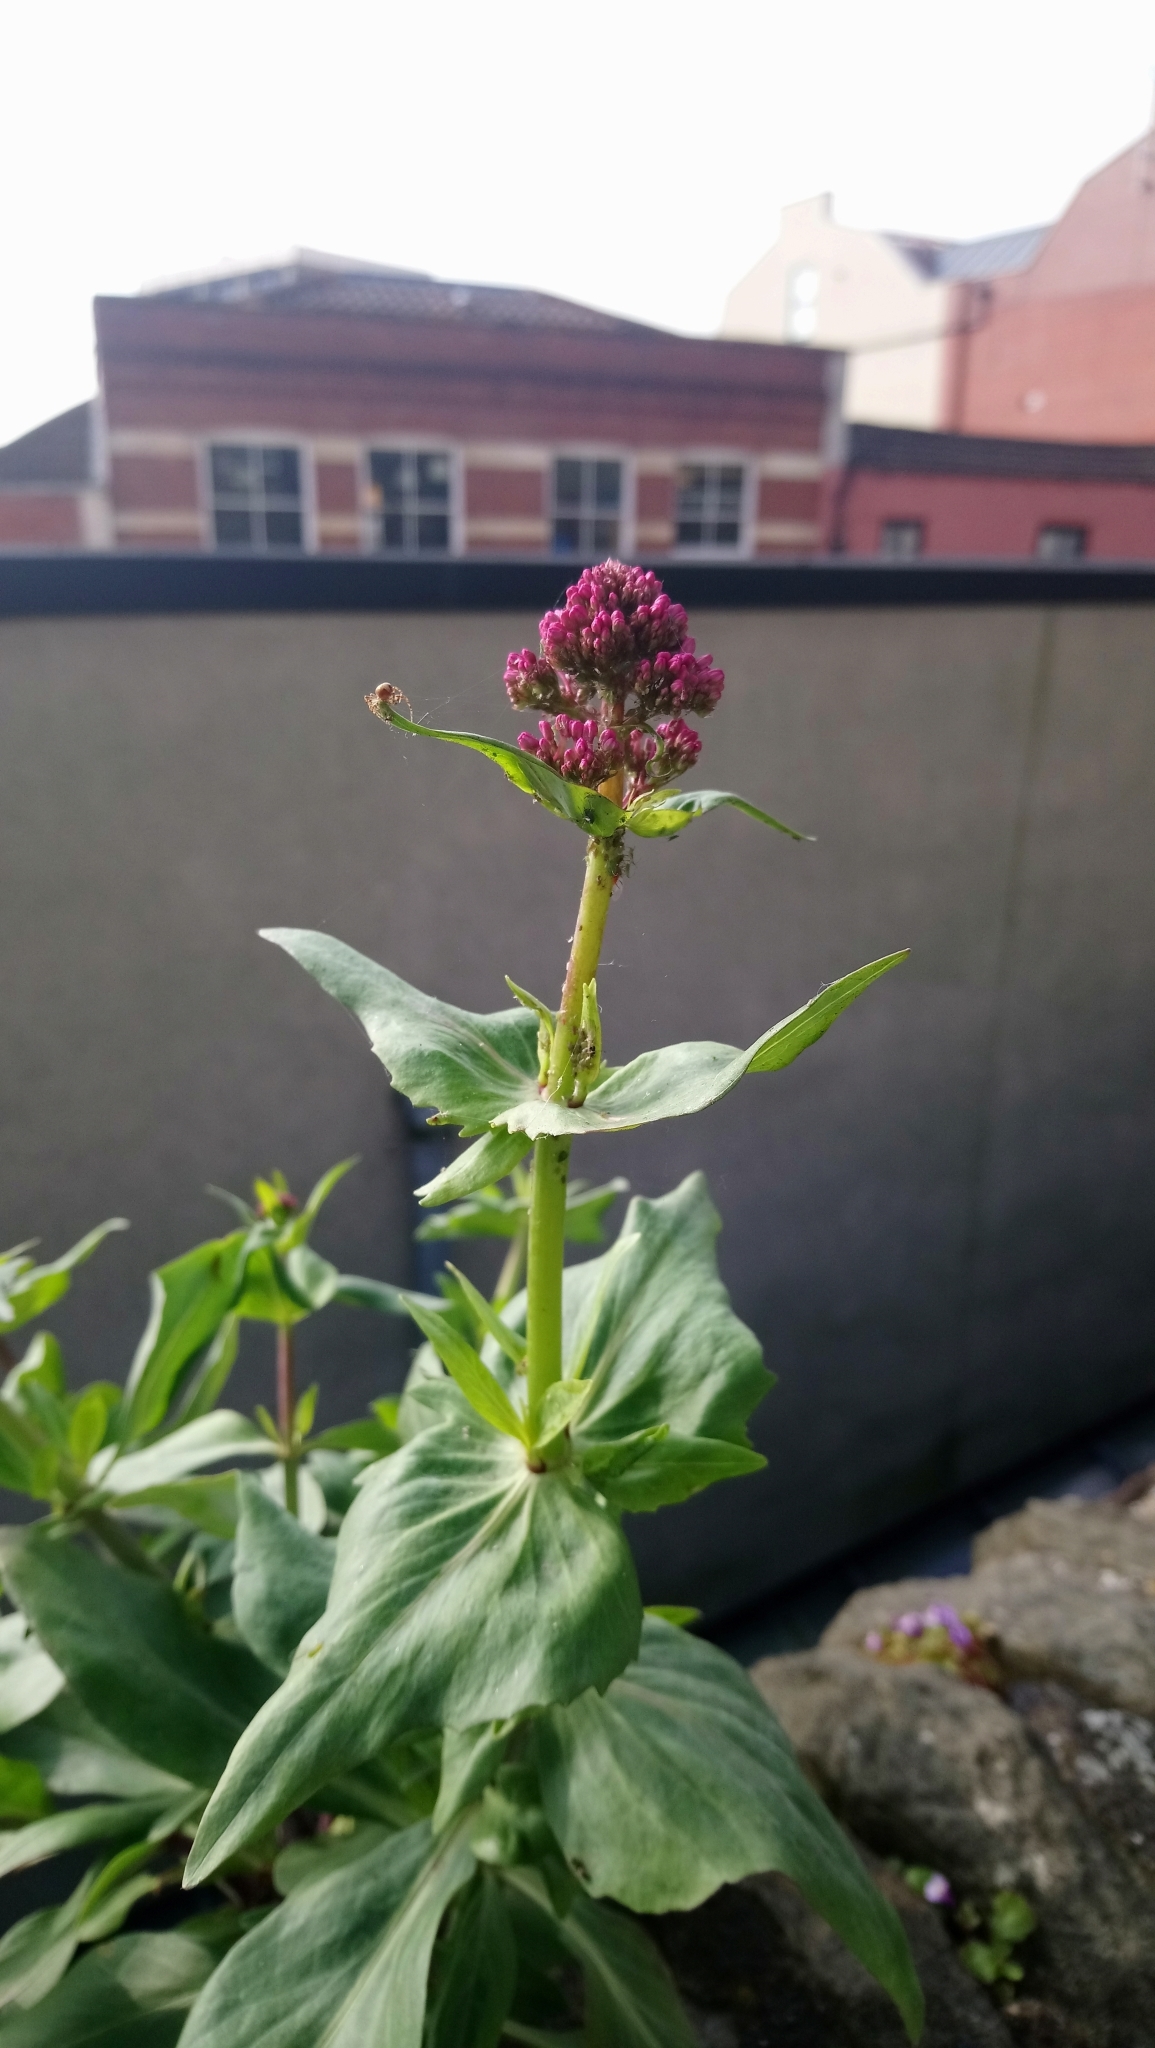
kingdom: Plantae
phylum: Tracheophyta
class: Magnoliopsida
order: Dipsacales
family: Caprifoliaceae
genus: Centranthus
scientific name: Centranthus ruber
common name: Red valerian
